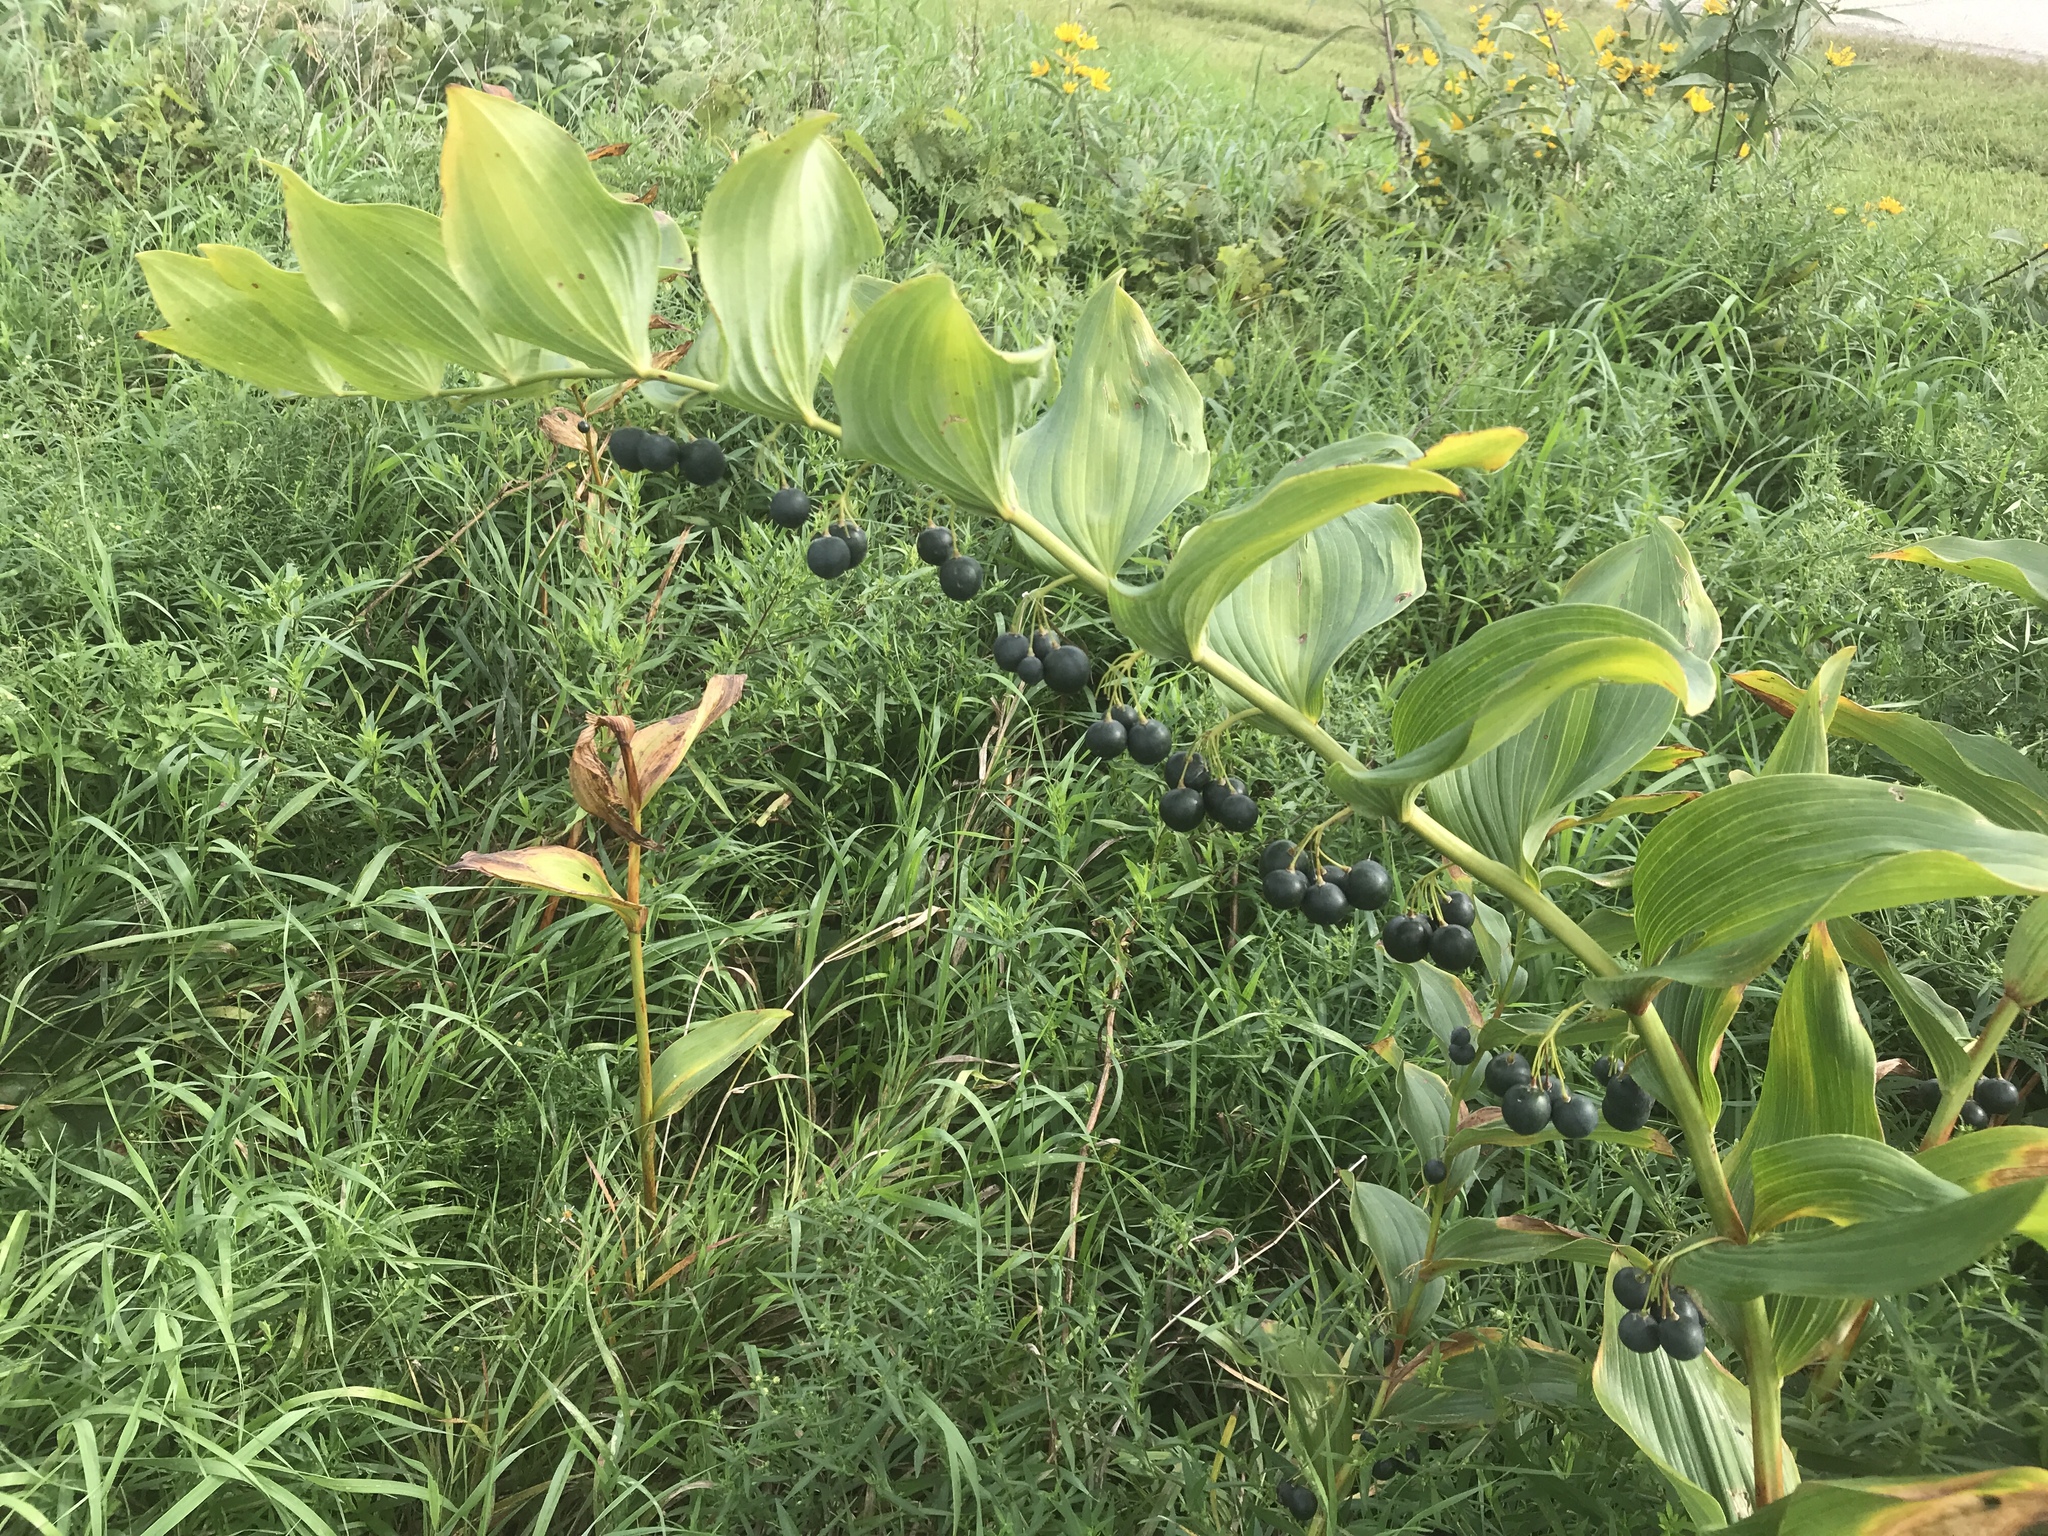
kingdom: Plantae
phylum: Tracheophyta
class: Liliopsida
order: Asparagales
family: Asparagaceae
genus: Polygonatum
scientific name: Polygonatum biflorum
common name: American solomon's-seal
